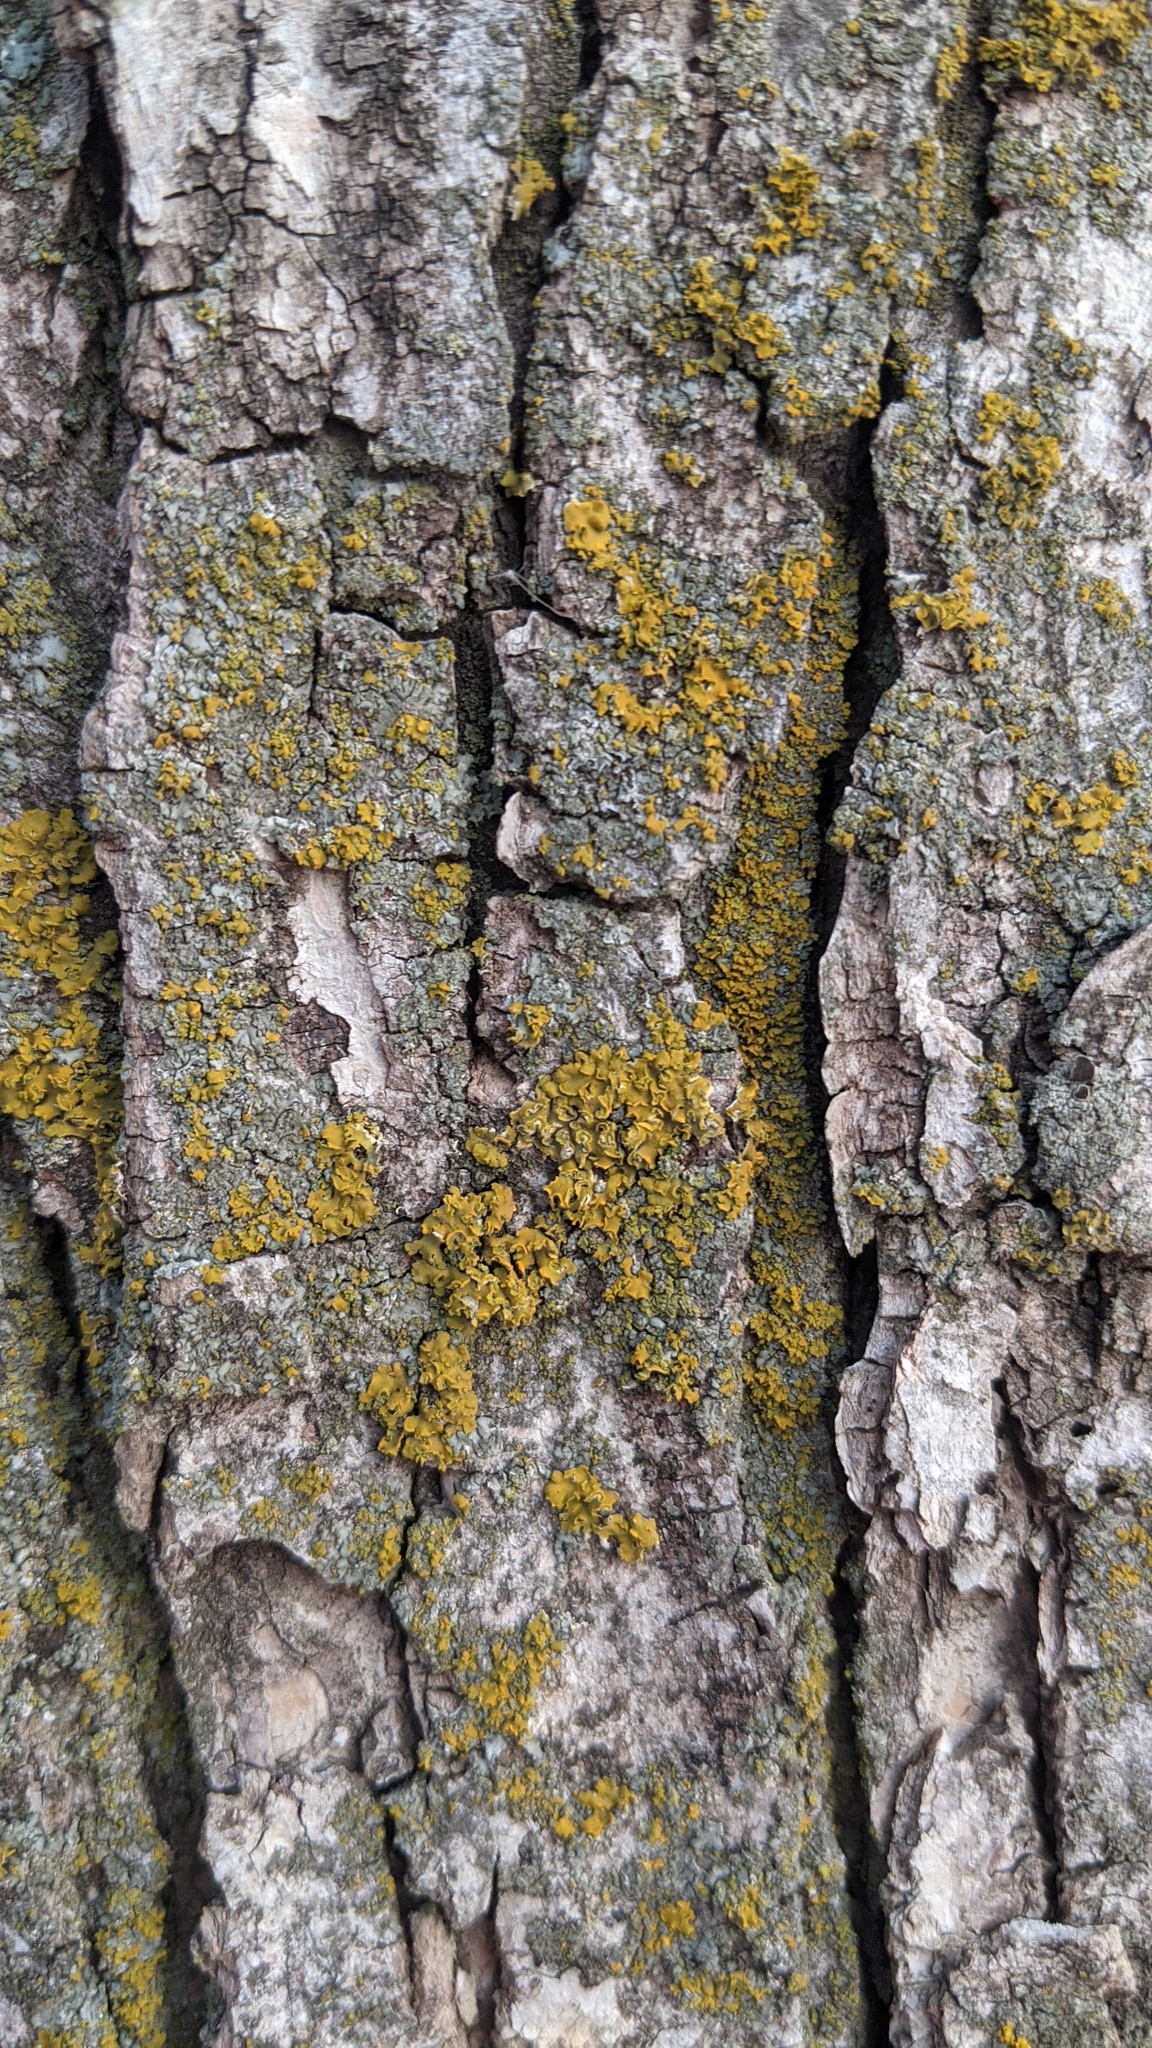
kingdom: Fungi
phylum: Ascomycota
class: Lecanoromycetes
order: Teloschistales
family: Teloschistaceae
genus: Oxneria
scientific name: Oxneria fallax
